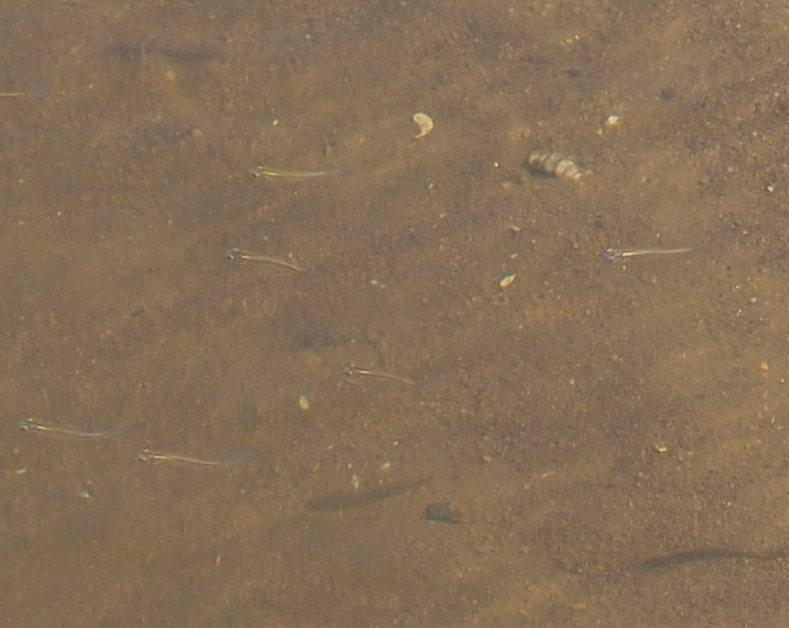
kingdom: Animalia
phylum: Chordata
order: Cyprinodontiformes
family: Poeciliidae
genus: Gambusia
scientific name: Gambusia holbrooki
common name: Eastern mosquitofish
